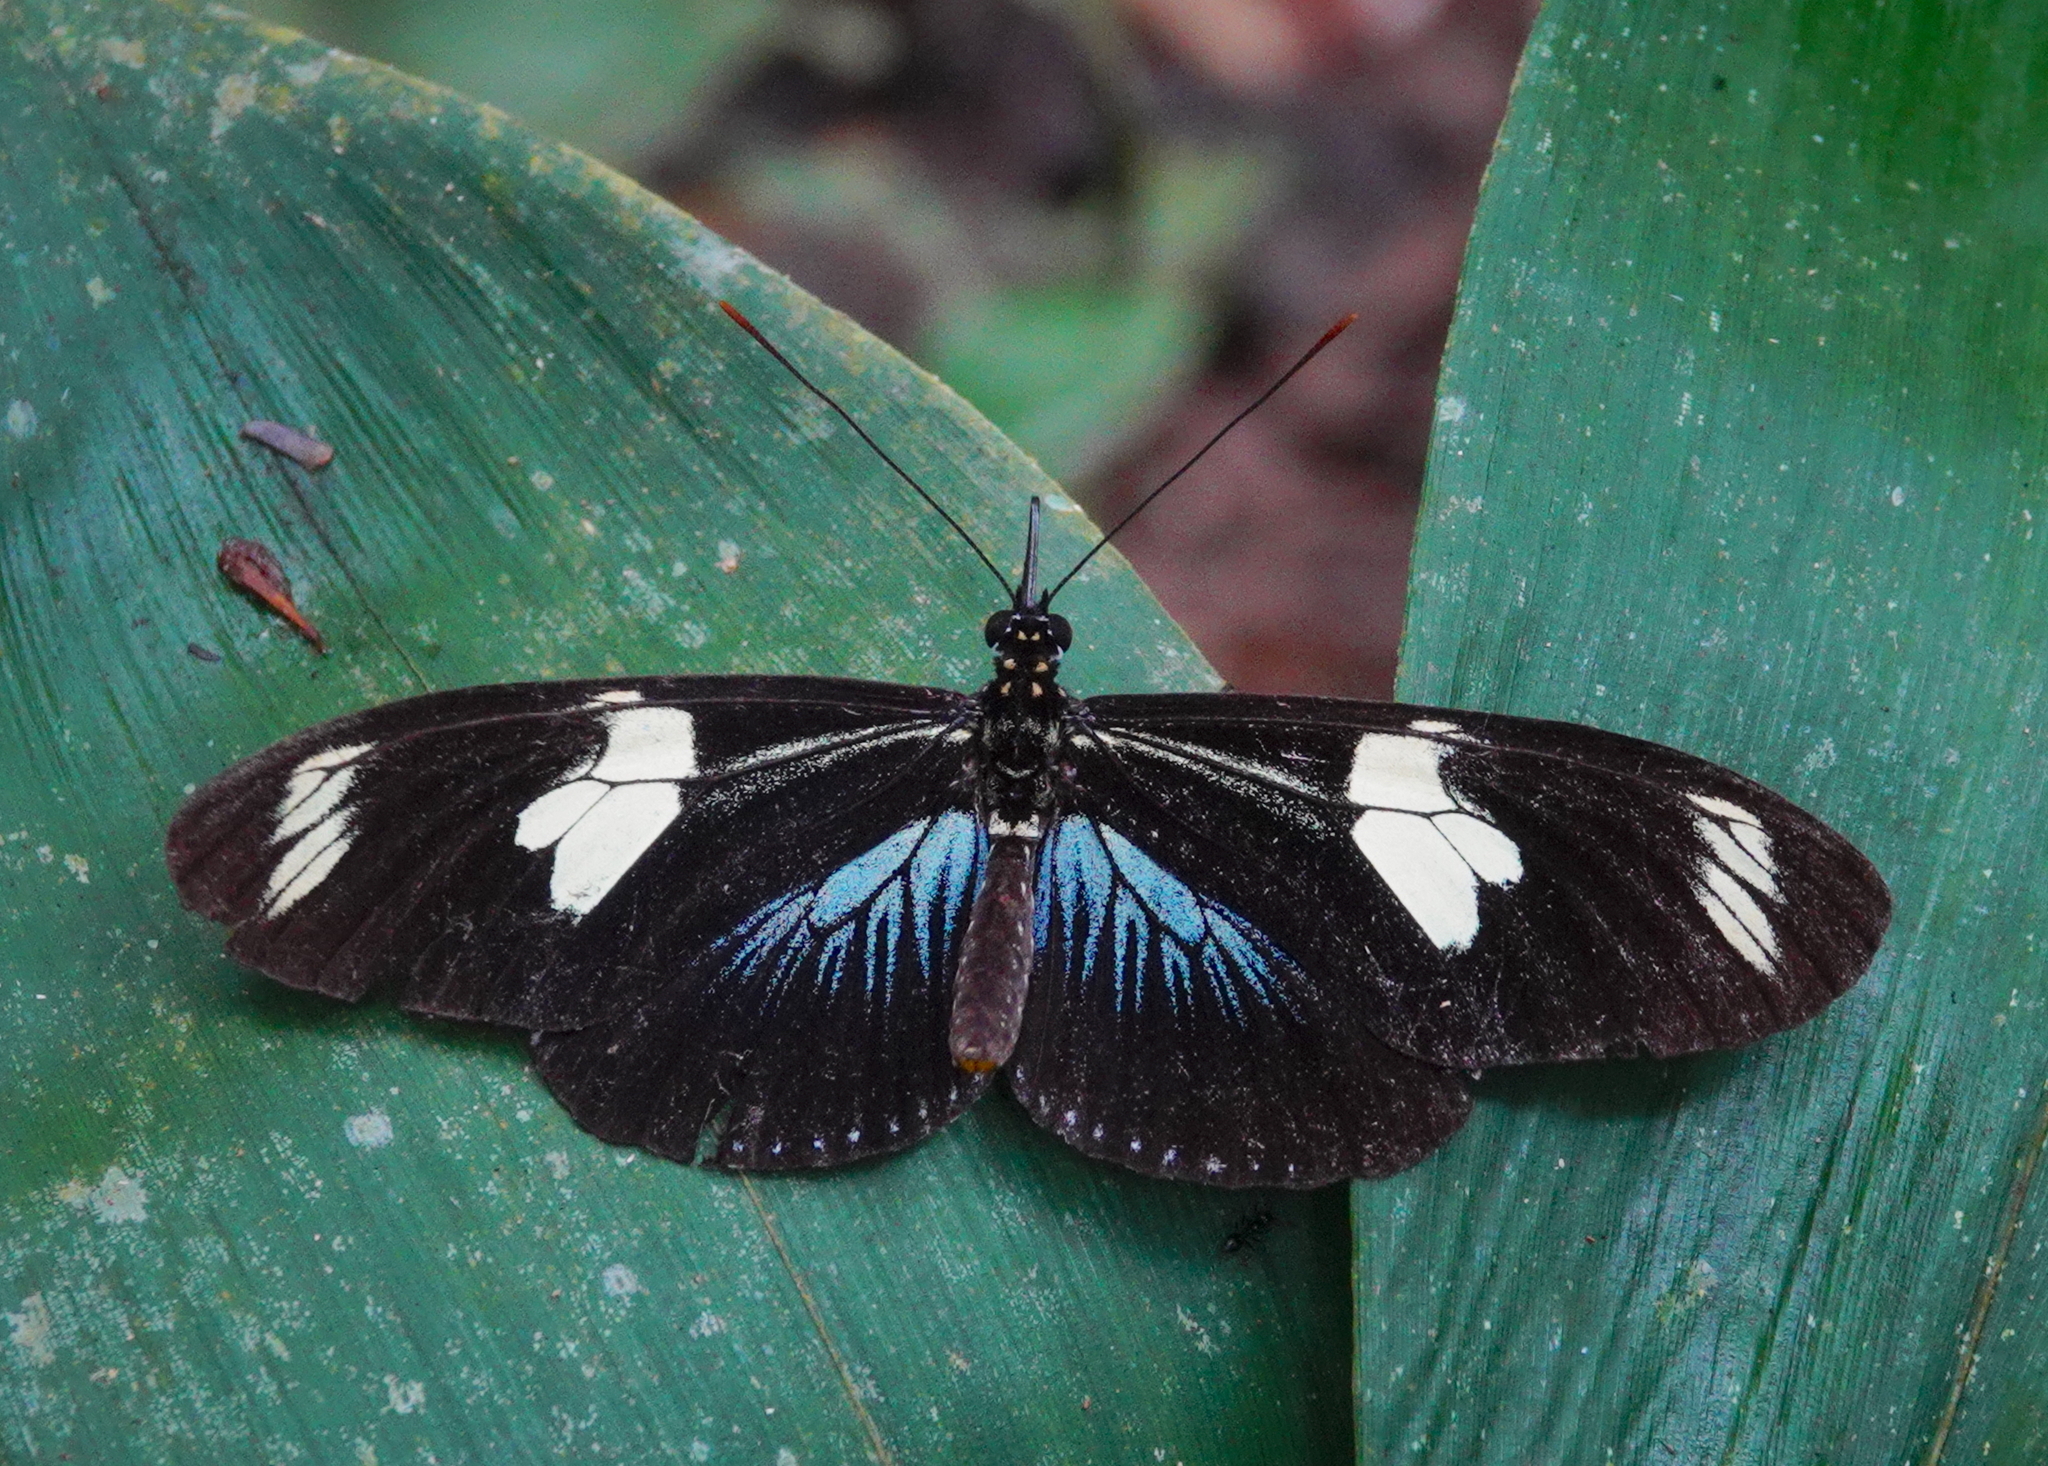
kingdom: Animalia
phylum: Arthropoda
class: Insecta
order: Lepidoptera
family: Nymphalidae
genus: Heliconius
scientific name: Heliconius doris
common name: Doris longwing
